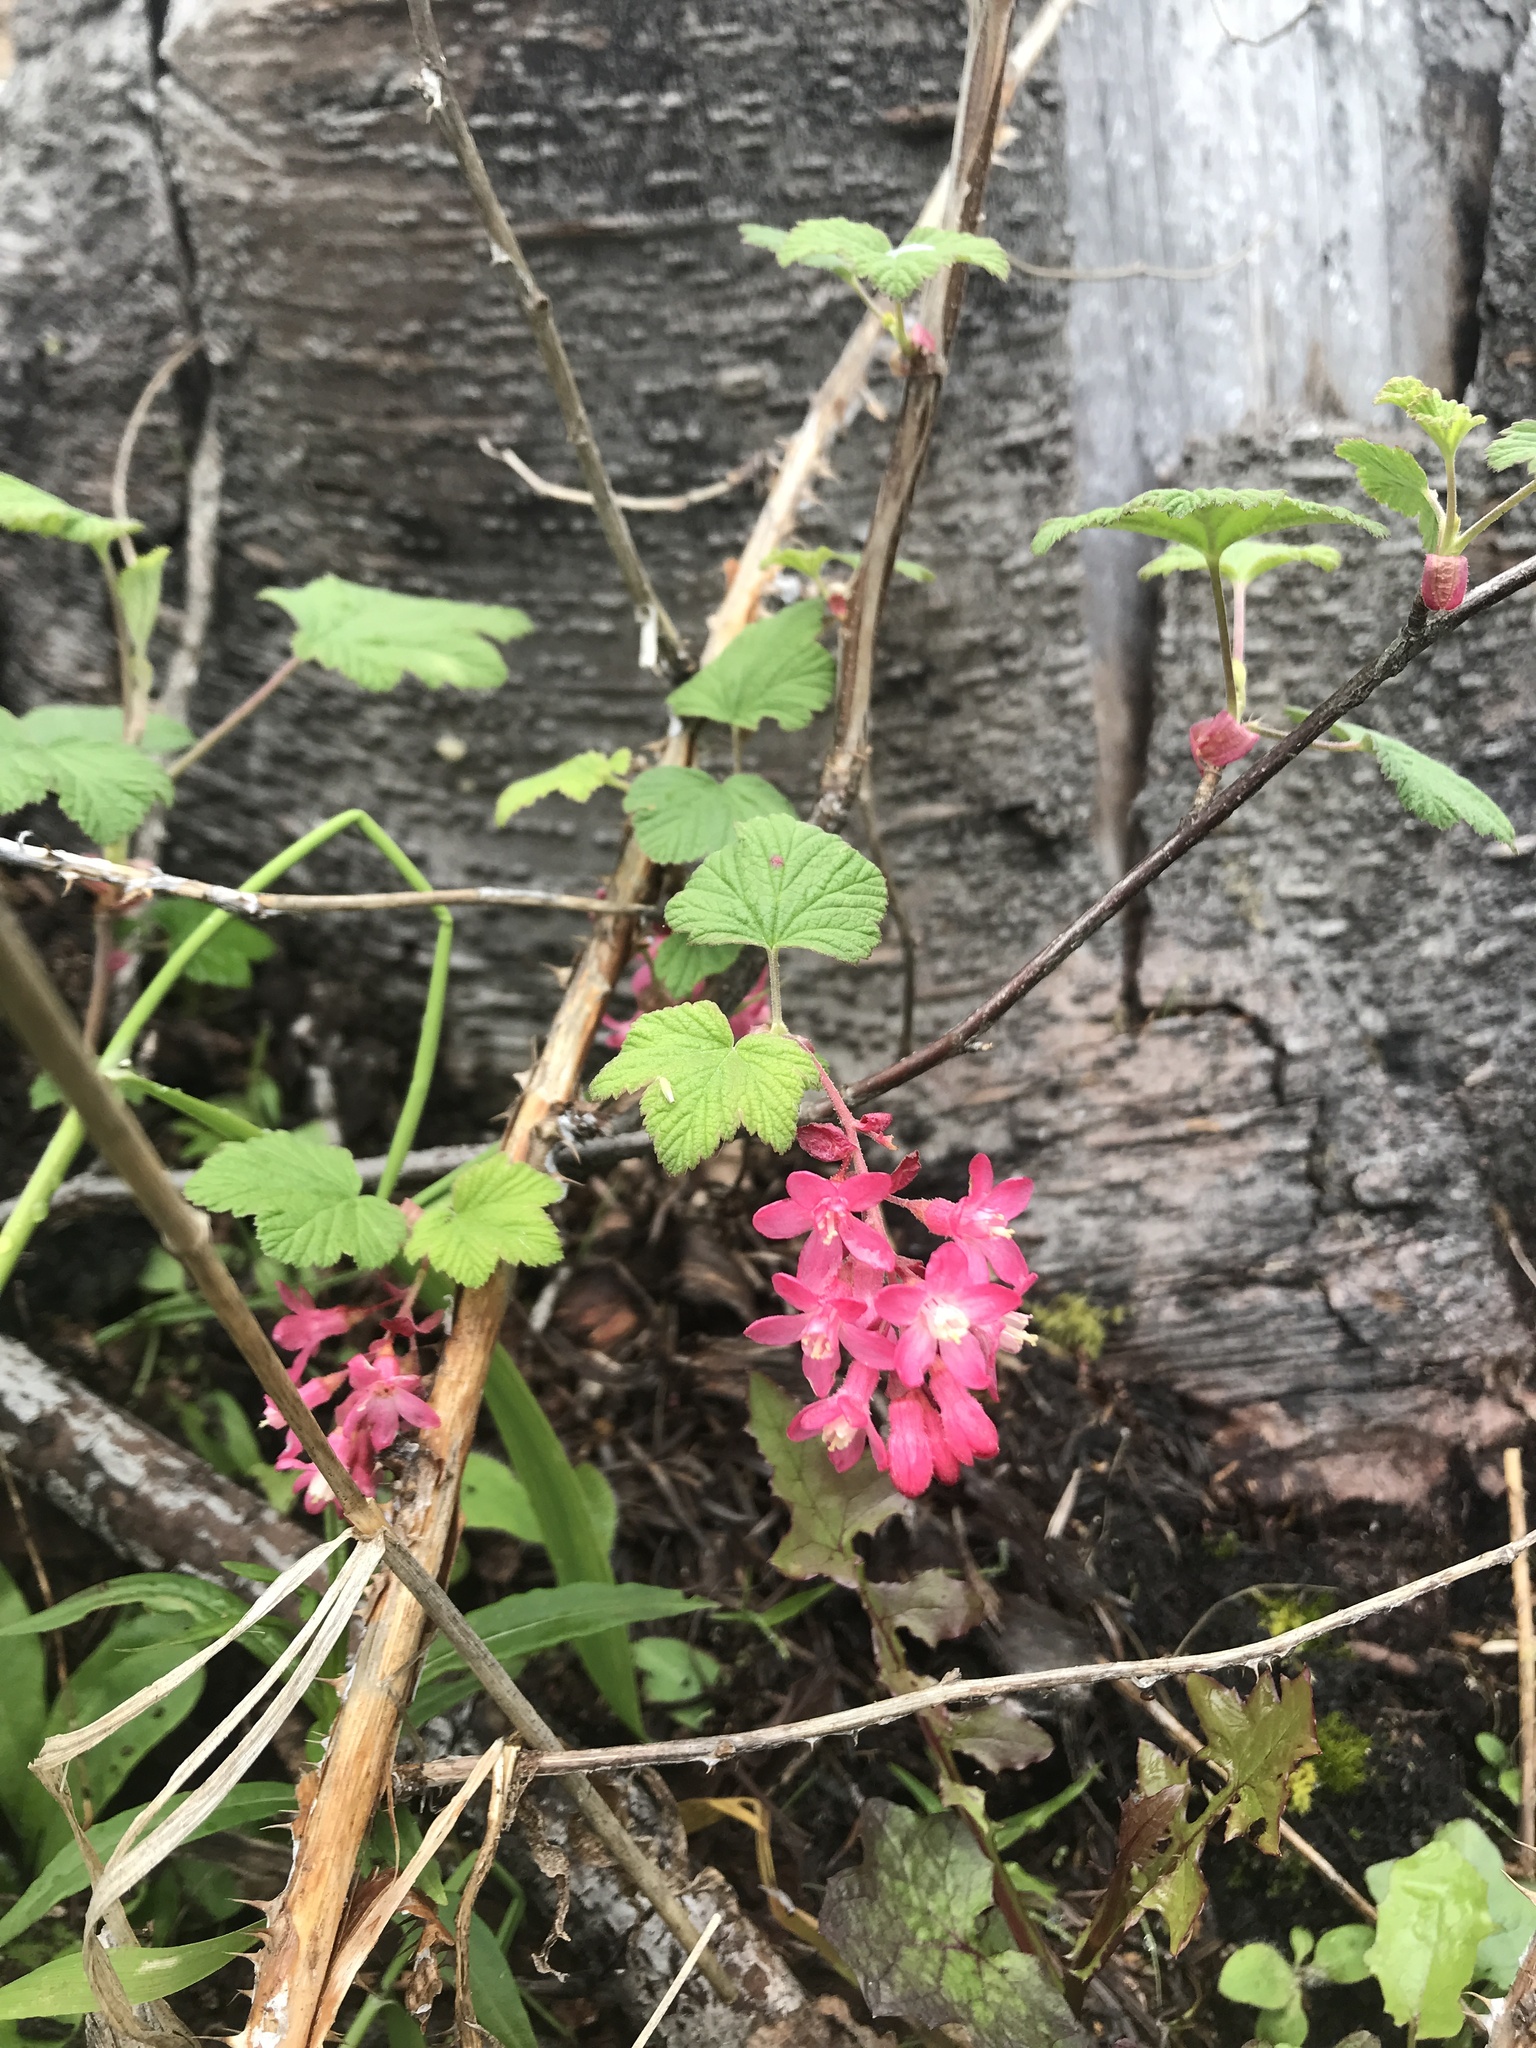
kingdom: Plantae
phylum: Tracheophyta
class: Magnoliopsida
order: Saxifragales
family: Grossulariaceae
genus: Ribes
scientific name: Ribes sanguineum
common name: Flowering currant
